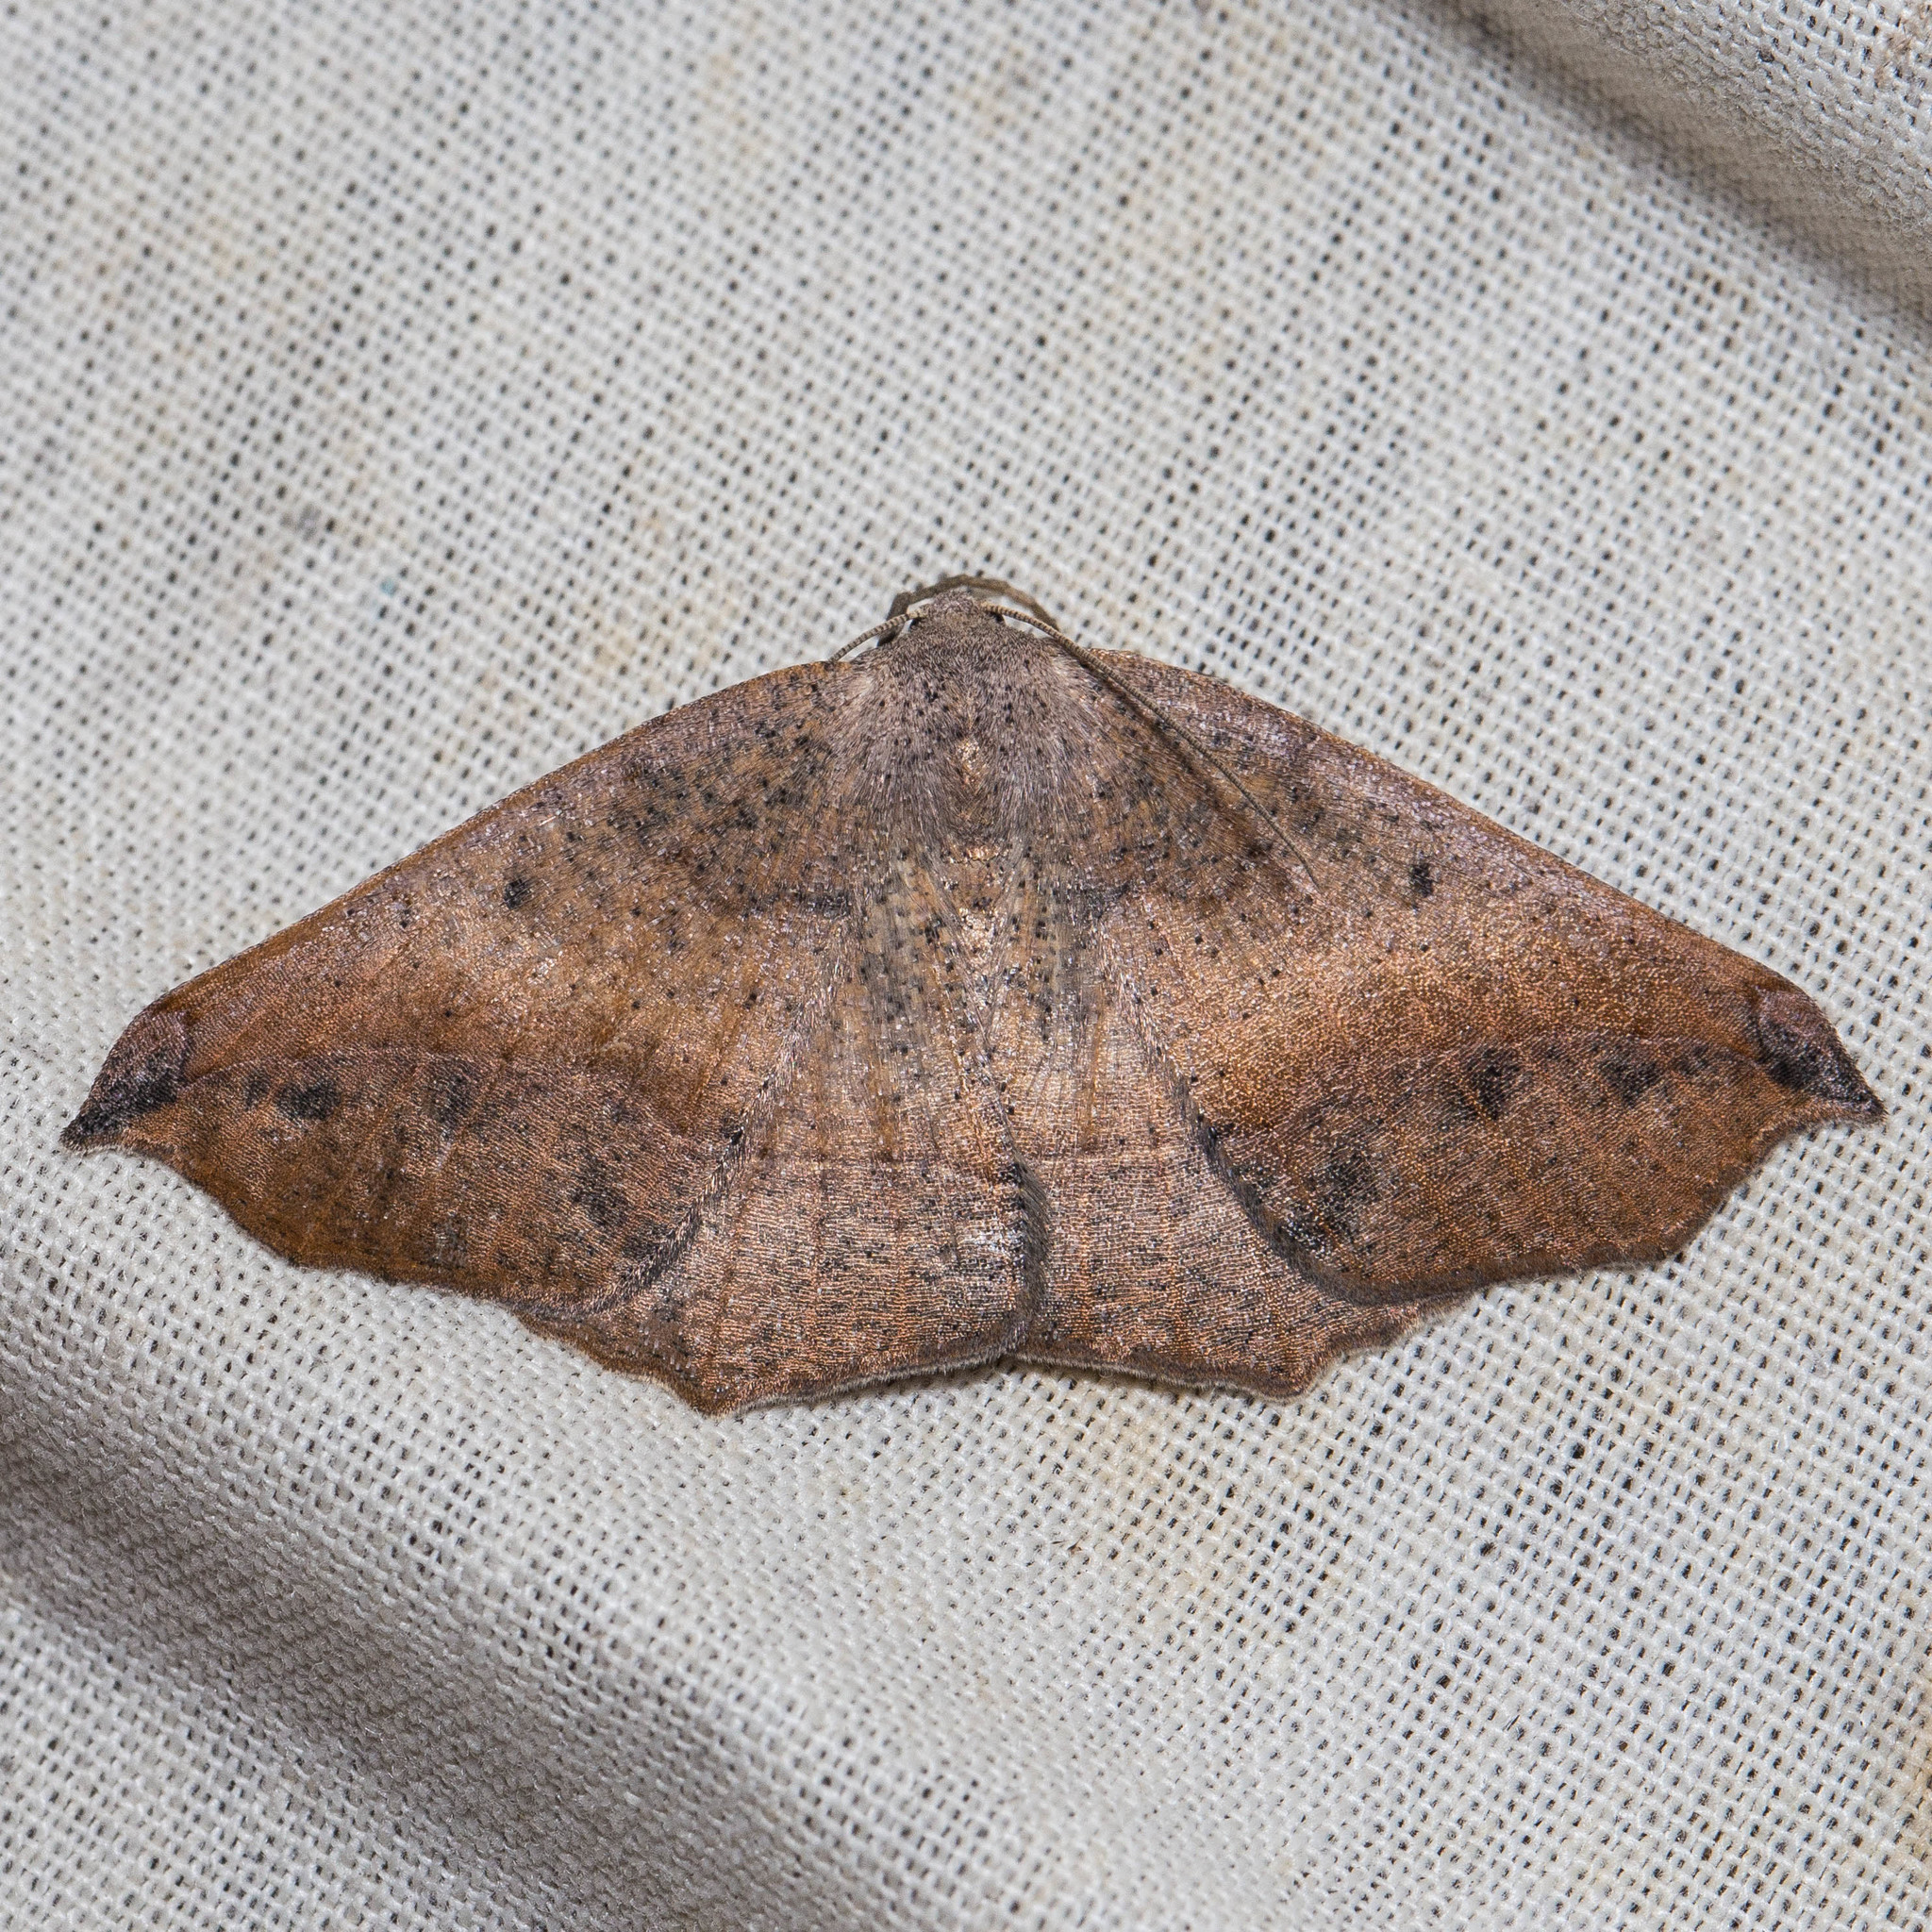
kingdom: Animalia
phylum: Arthropoda
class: Insecta
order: Lepidoptera
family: Geometridae
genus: Prochoerodes
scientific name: Prochoerodes forficaria
